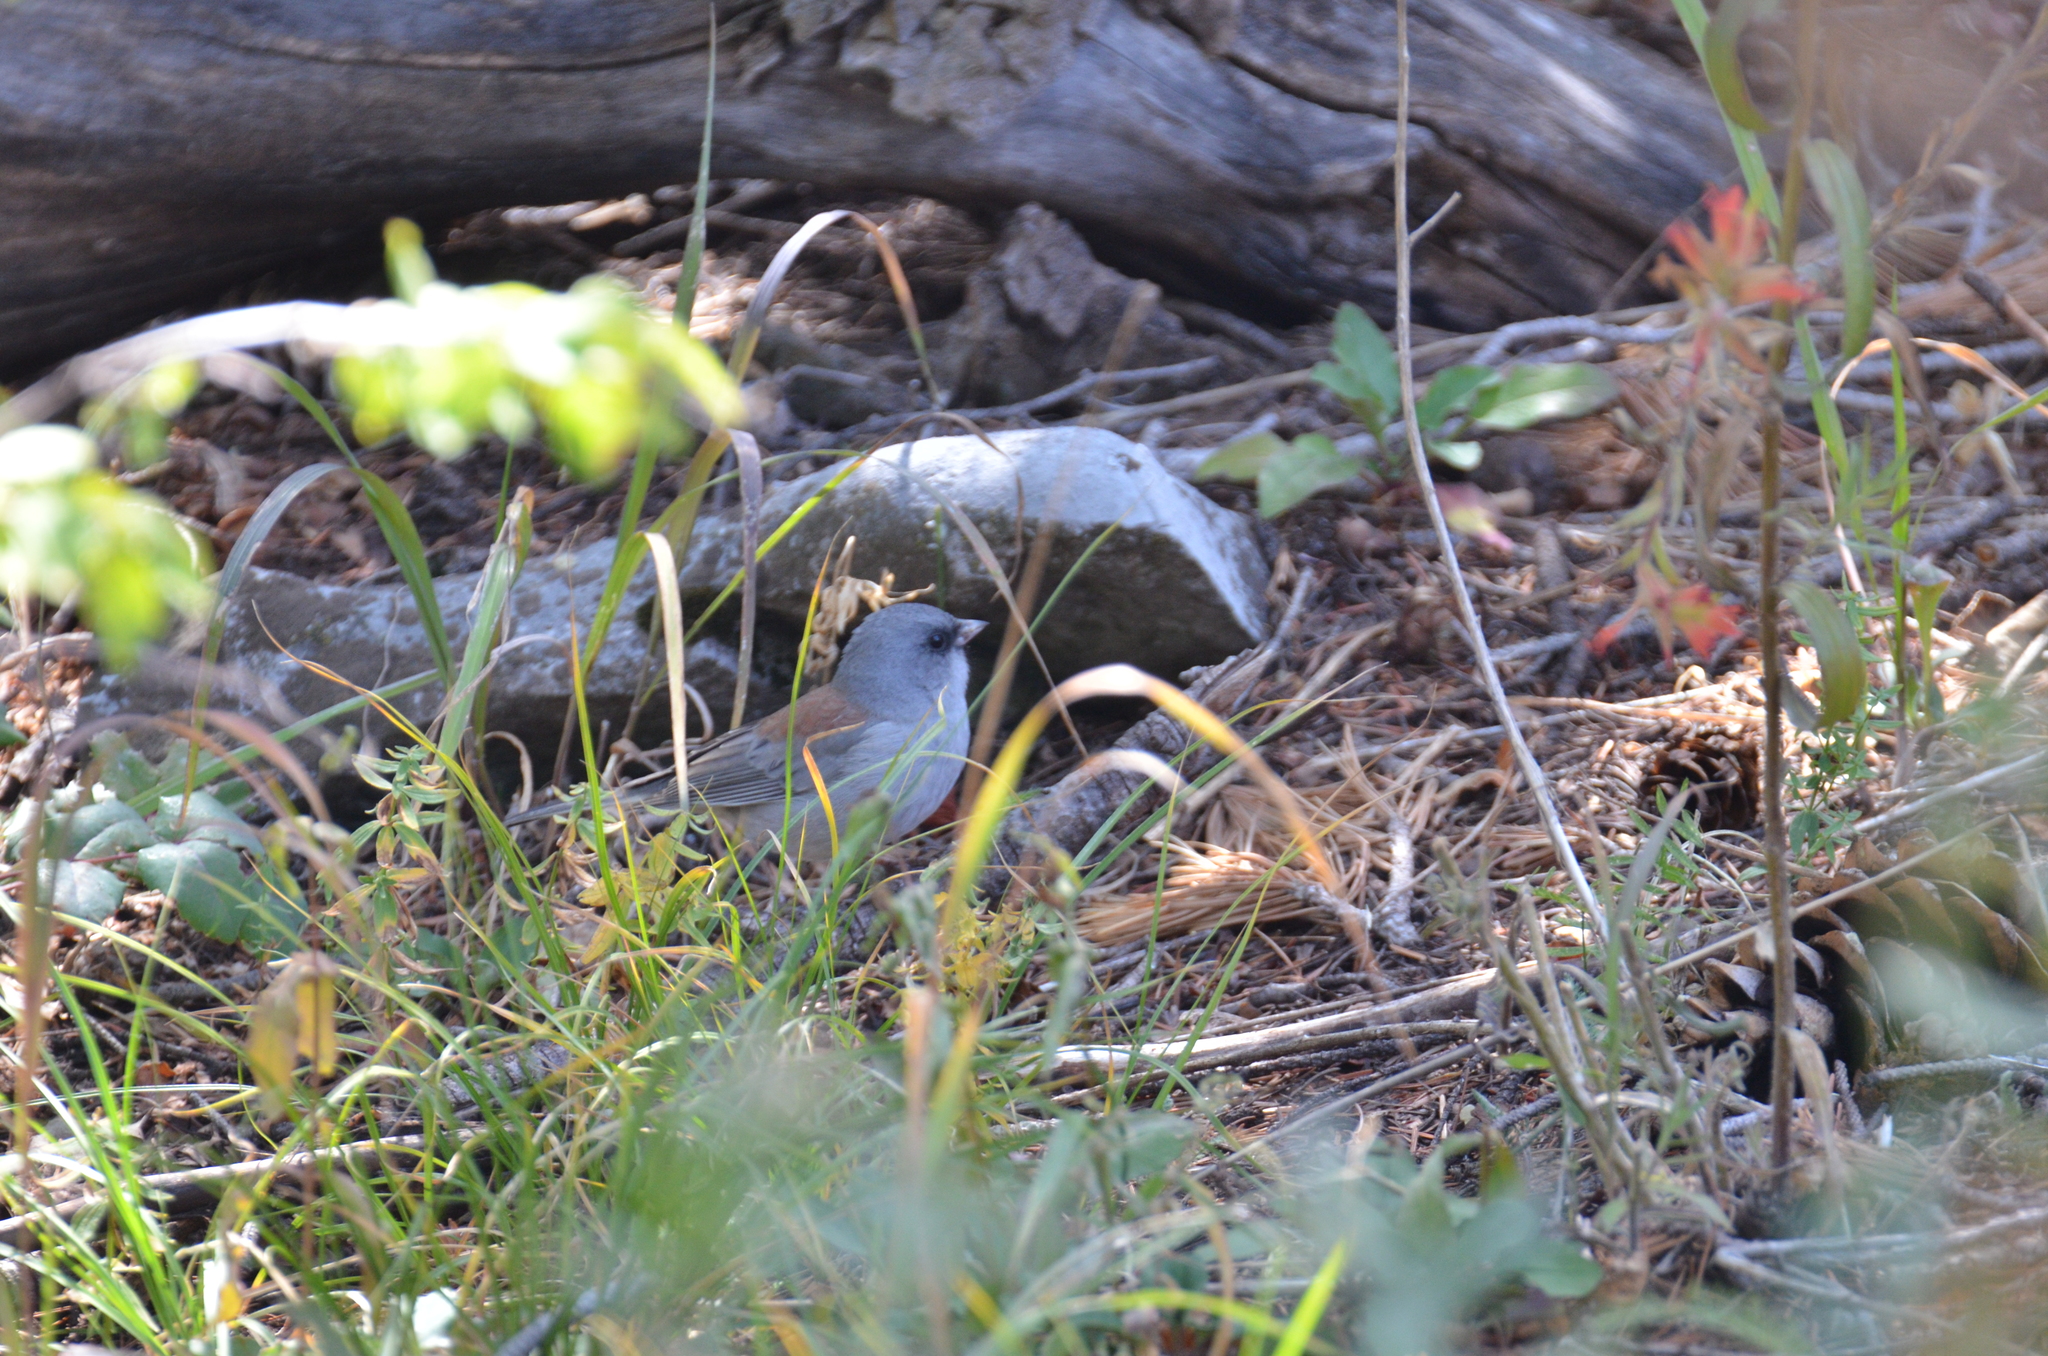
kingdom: Animalia
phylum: Chordata
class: Aves
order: Passeriformes
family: Passerellidae
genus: Junco
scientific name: Junco hyemalis
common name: Dark-eyed junco
